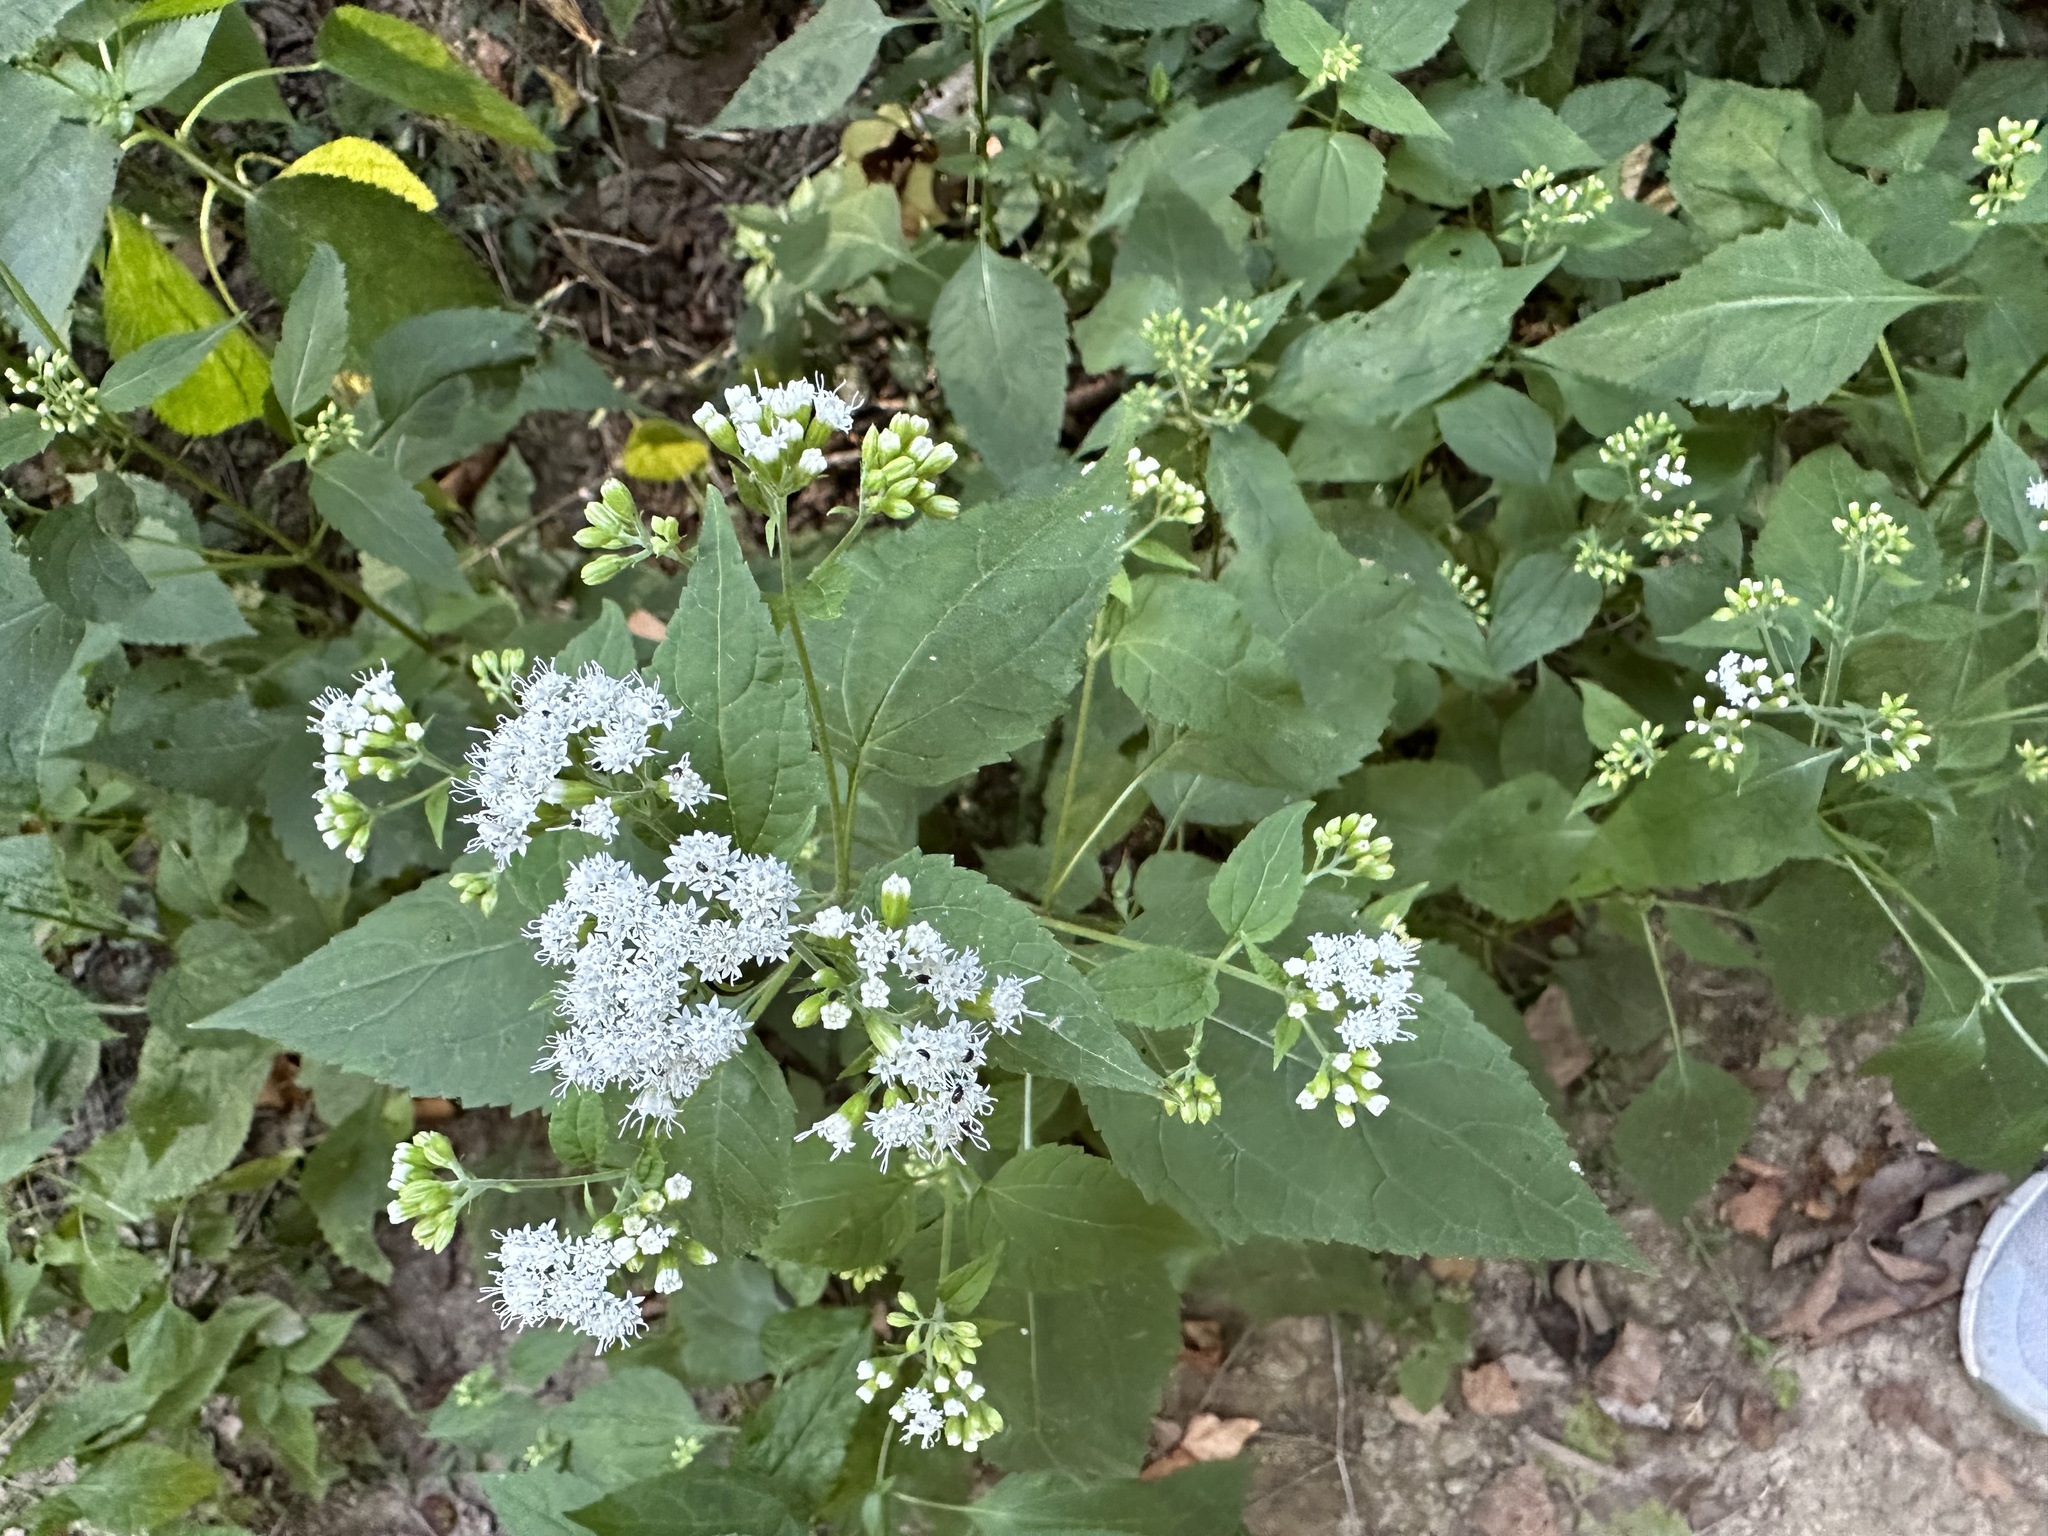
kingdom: Plantae
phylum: Tracheophyta
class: Magnoliopsida
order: Asterales
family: Asteraceae
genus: Ageratina
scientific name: Ageratina altissima
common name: White snakeroot
